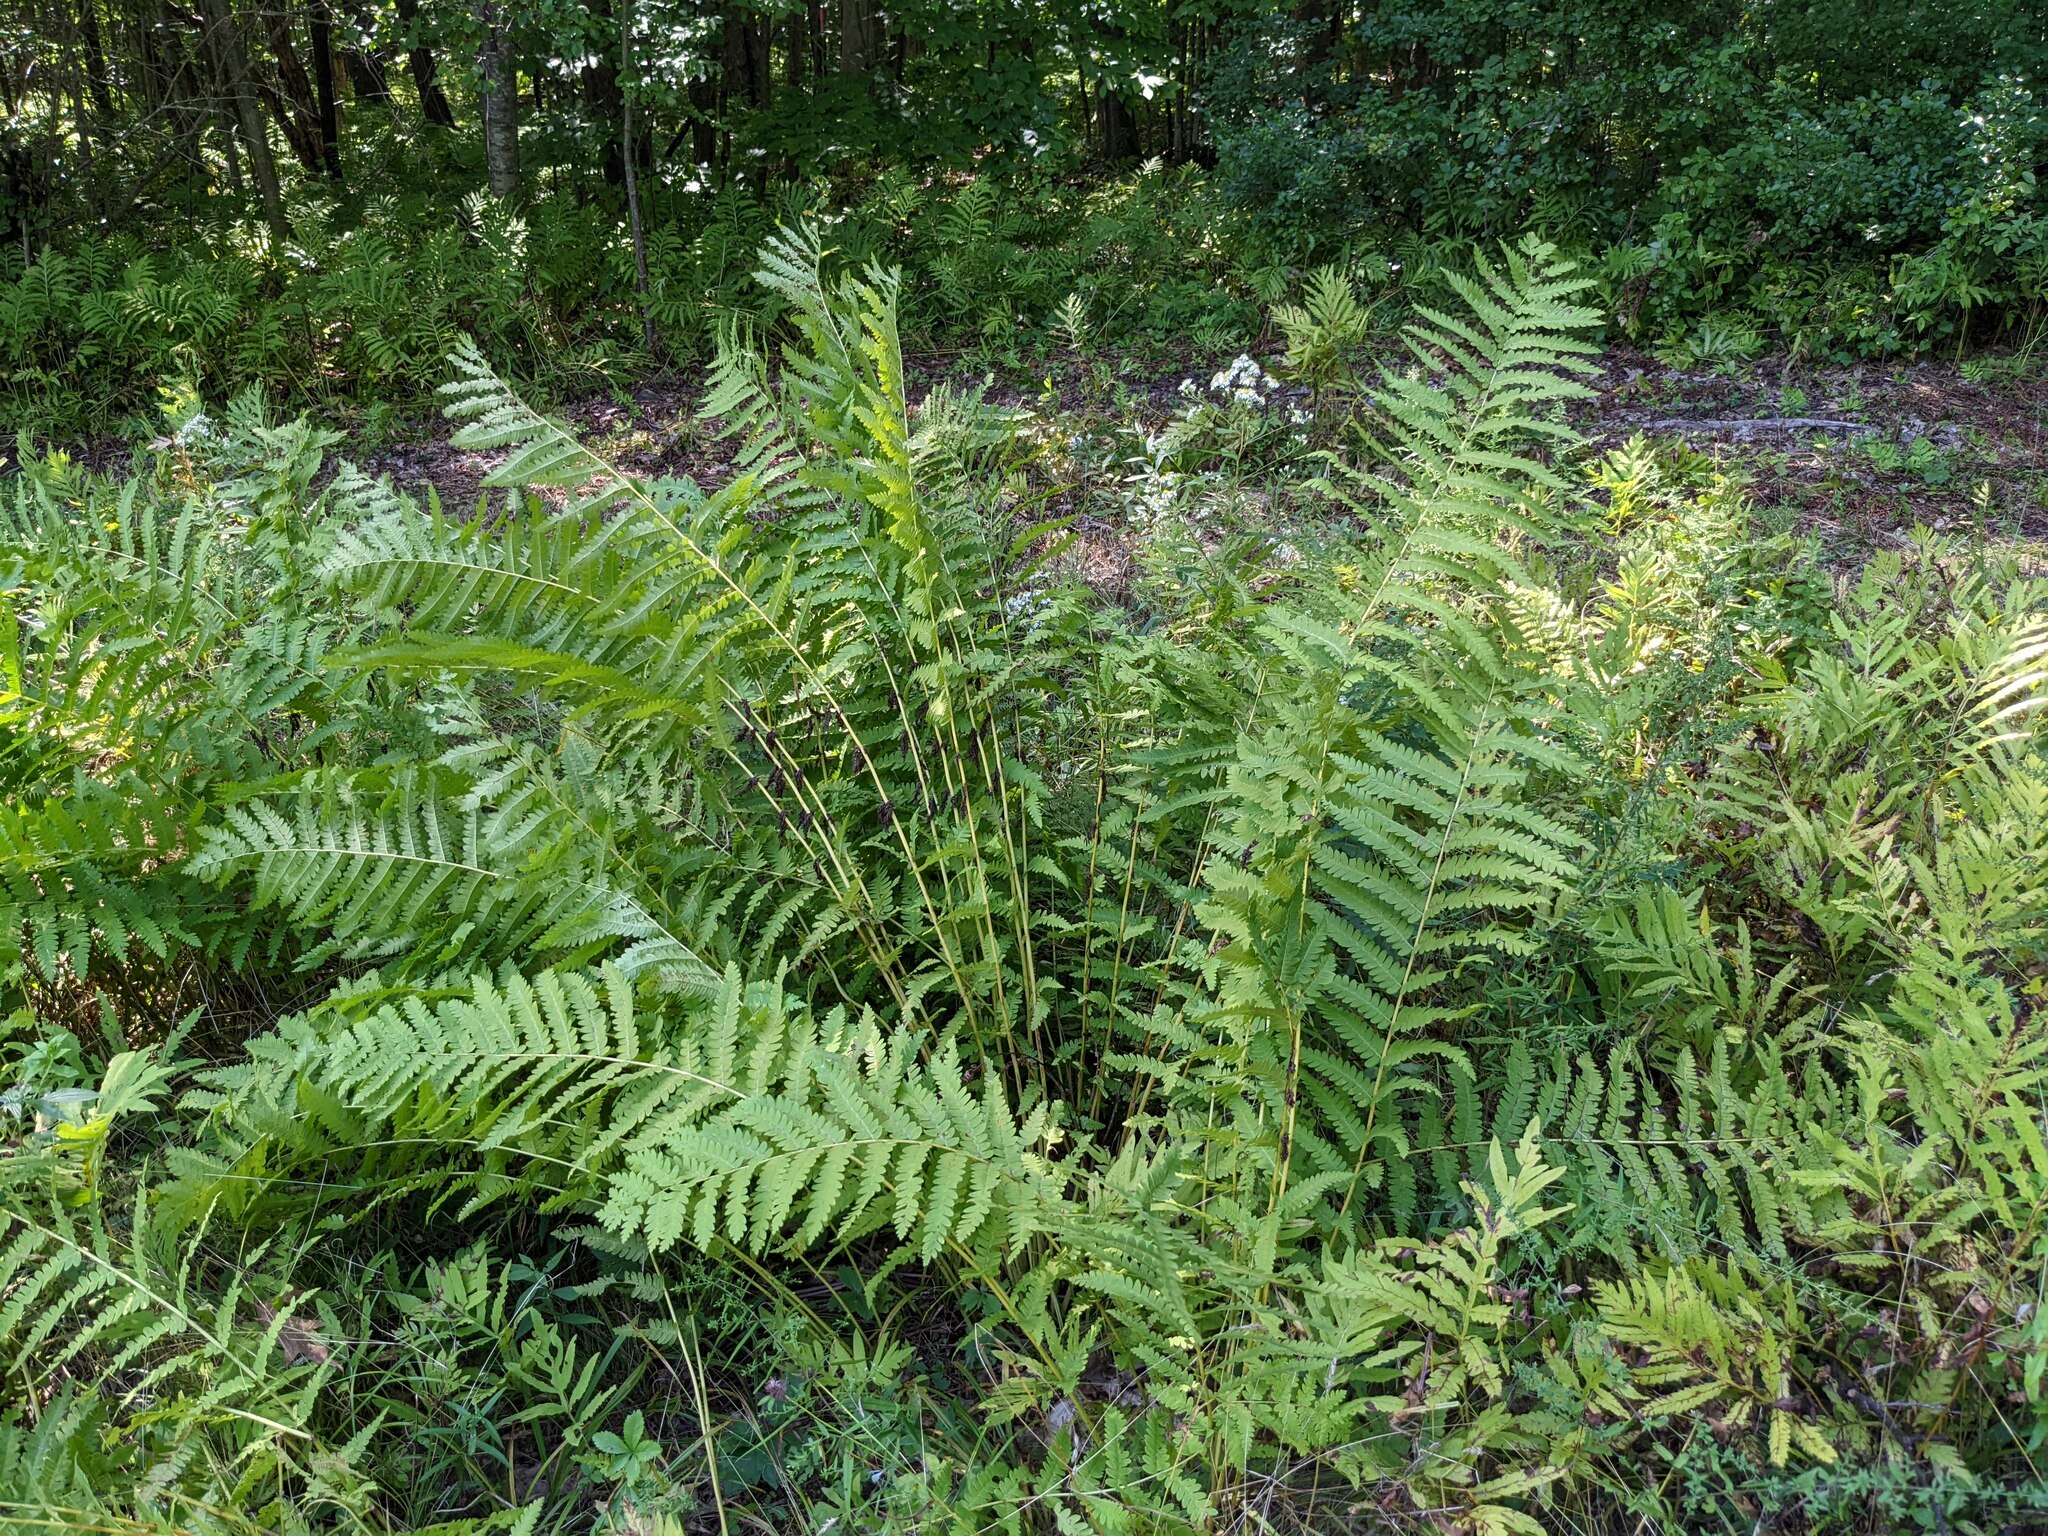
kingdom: Plantae
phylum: Tracheophyta
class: Polypodiopsida
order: Osmundales
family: Osmundaceae
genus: Claytosmunda
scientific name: Claytosmunda claytoniana
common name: Clayton's fern
